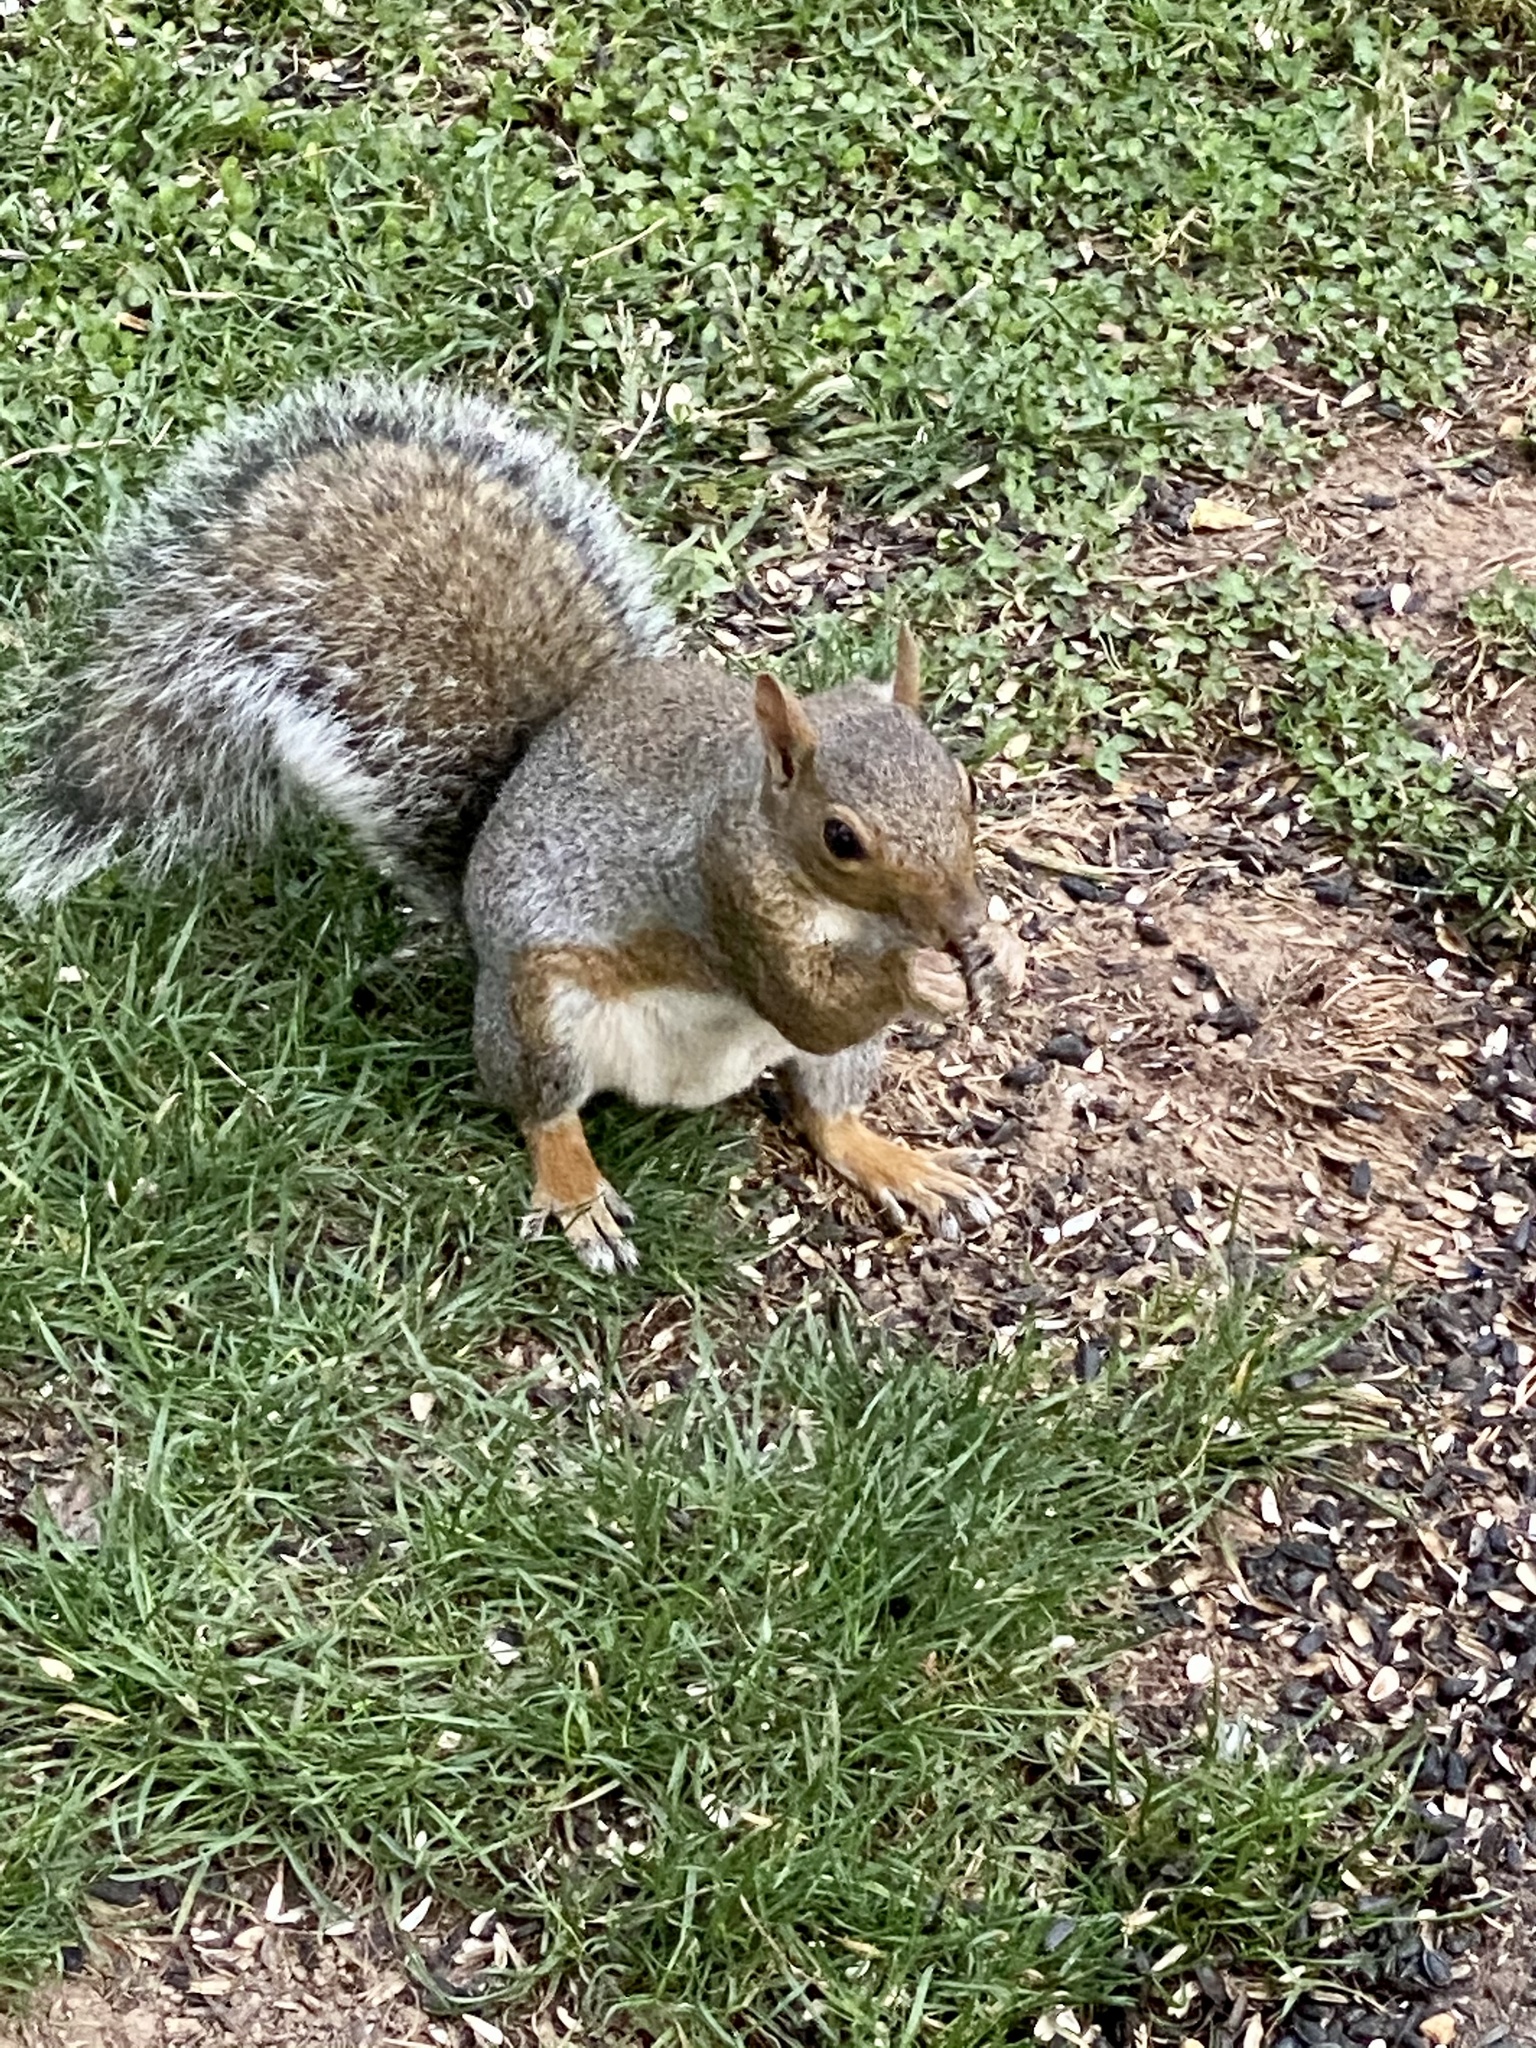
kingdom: Animalia
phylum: Chordata
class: Mammalia
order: Rodentia
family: Sciuridae
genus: Sciurus
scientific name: Sciurus carolinensis
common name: Eastern gray squirrel
